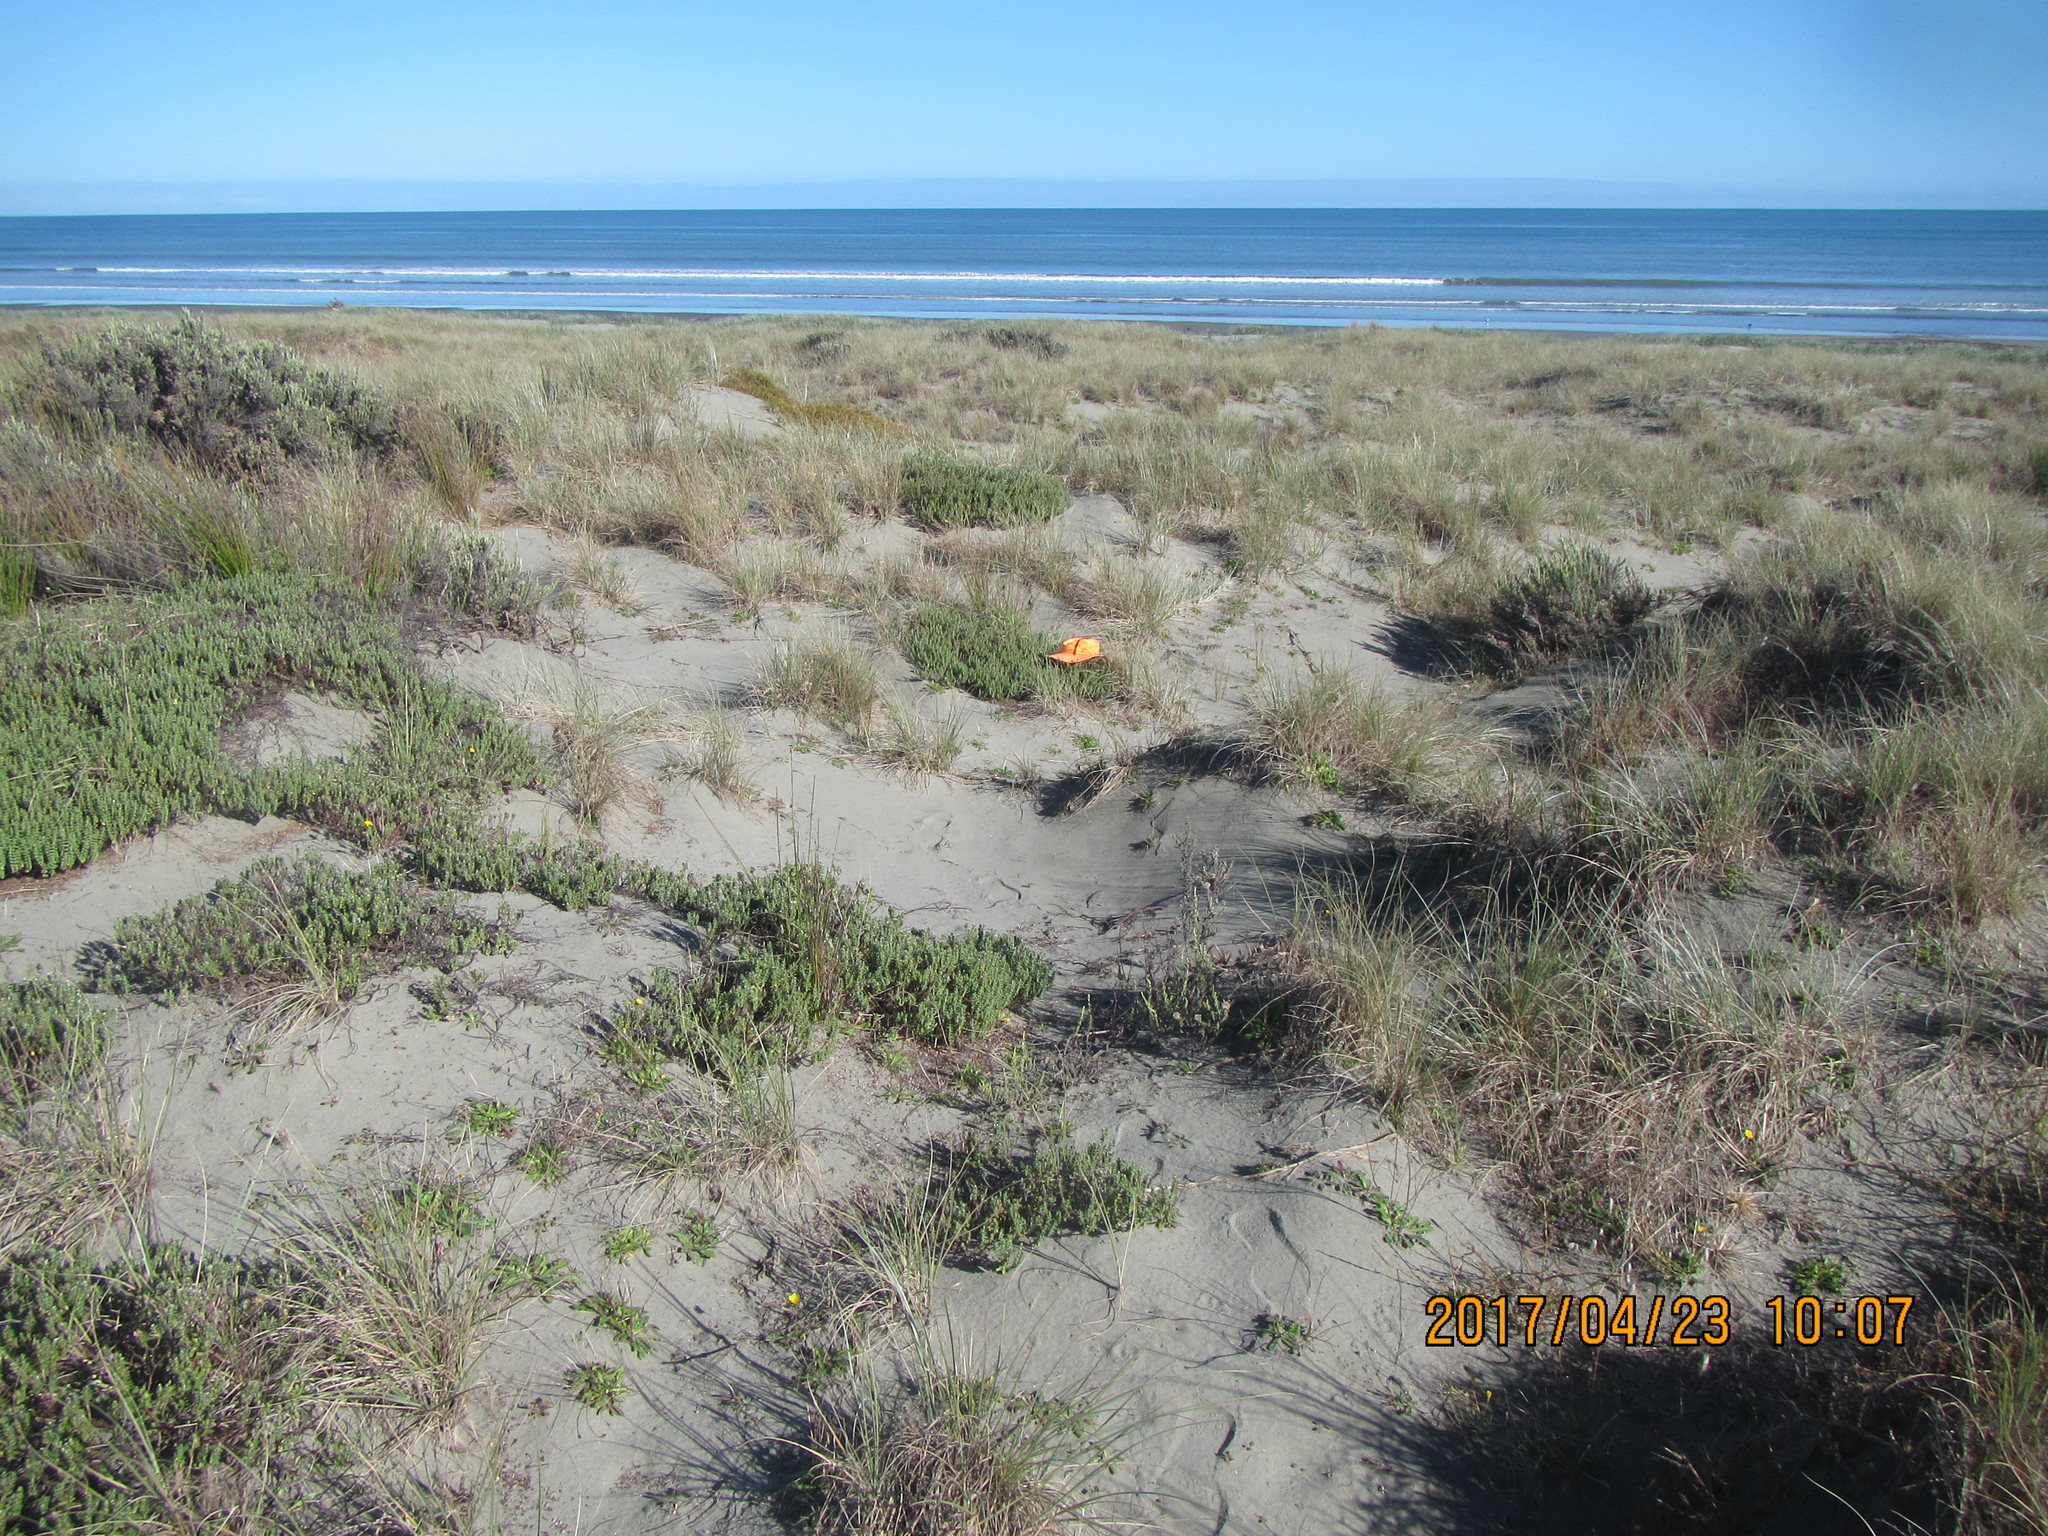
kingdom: Plantae
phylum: Tracheophyta
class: Magnoliopsida
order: Malvales
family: Thymelaeaceae
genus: Pimelea
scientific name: Pimelea villosa
